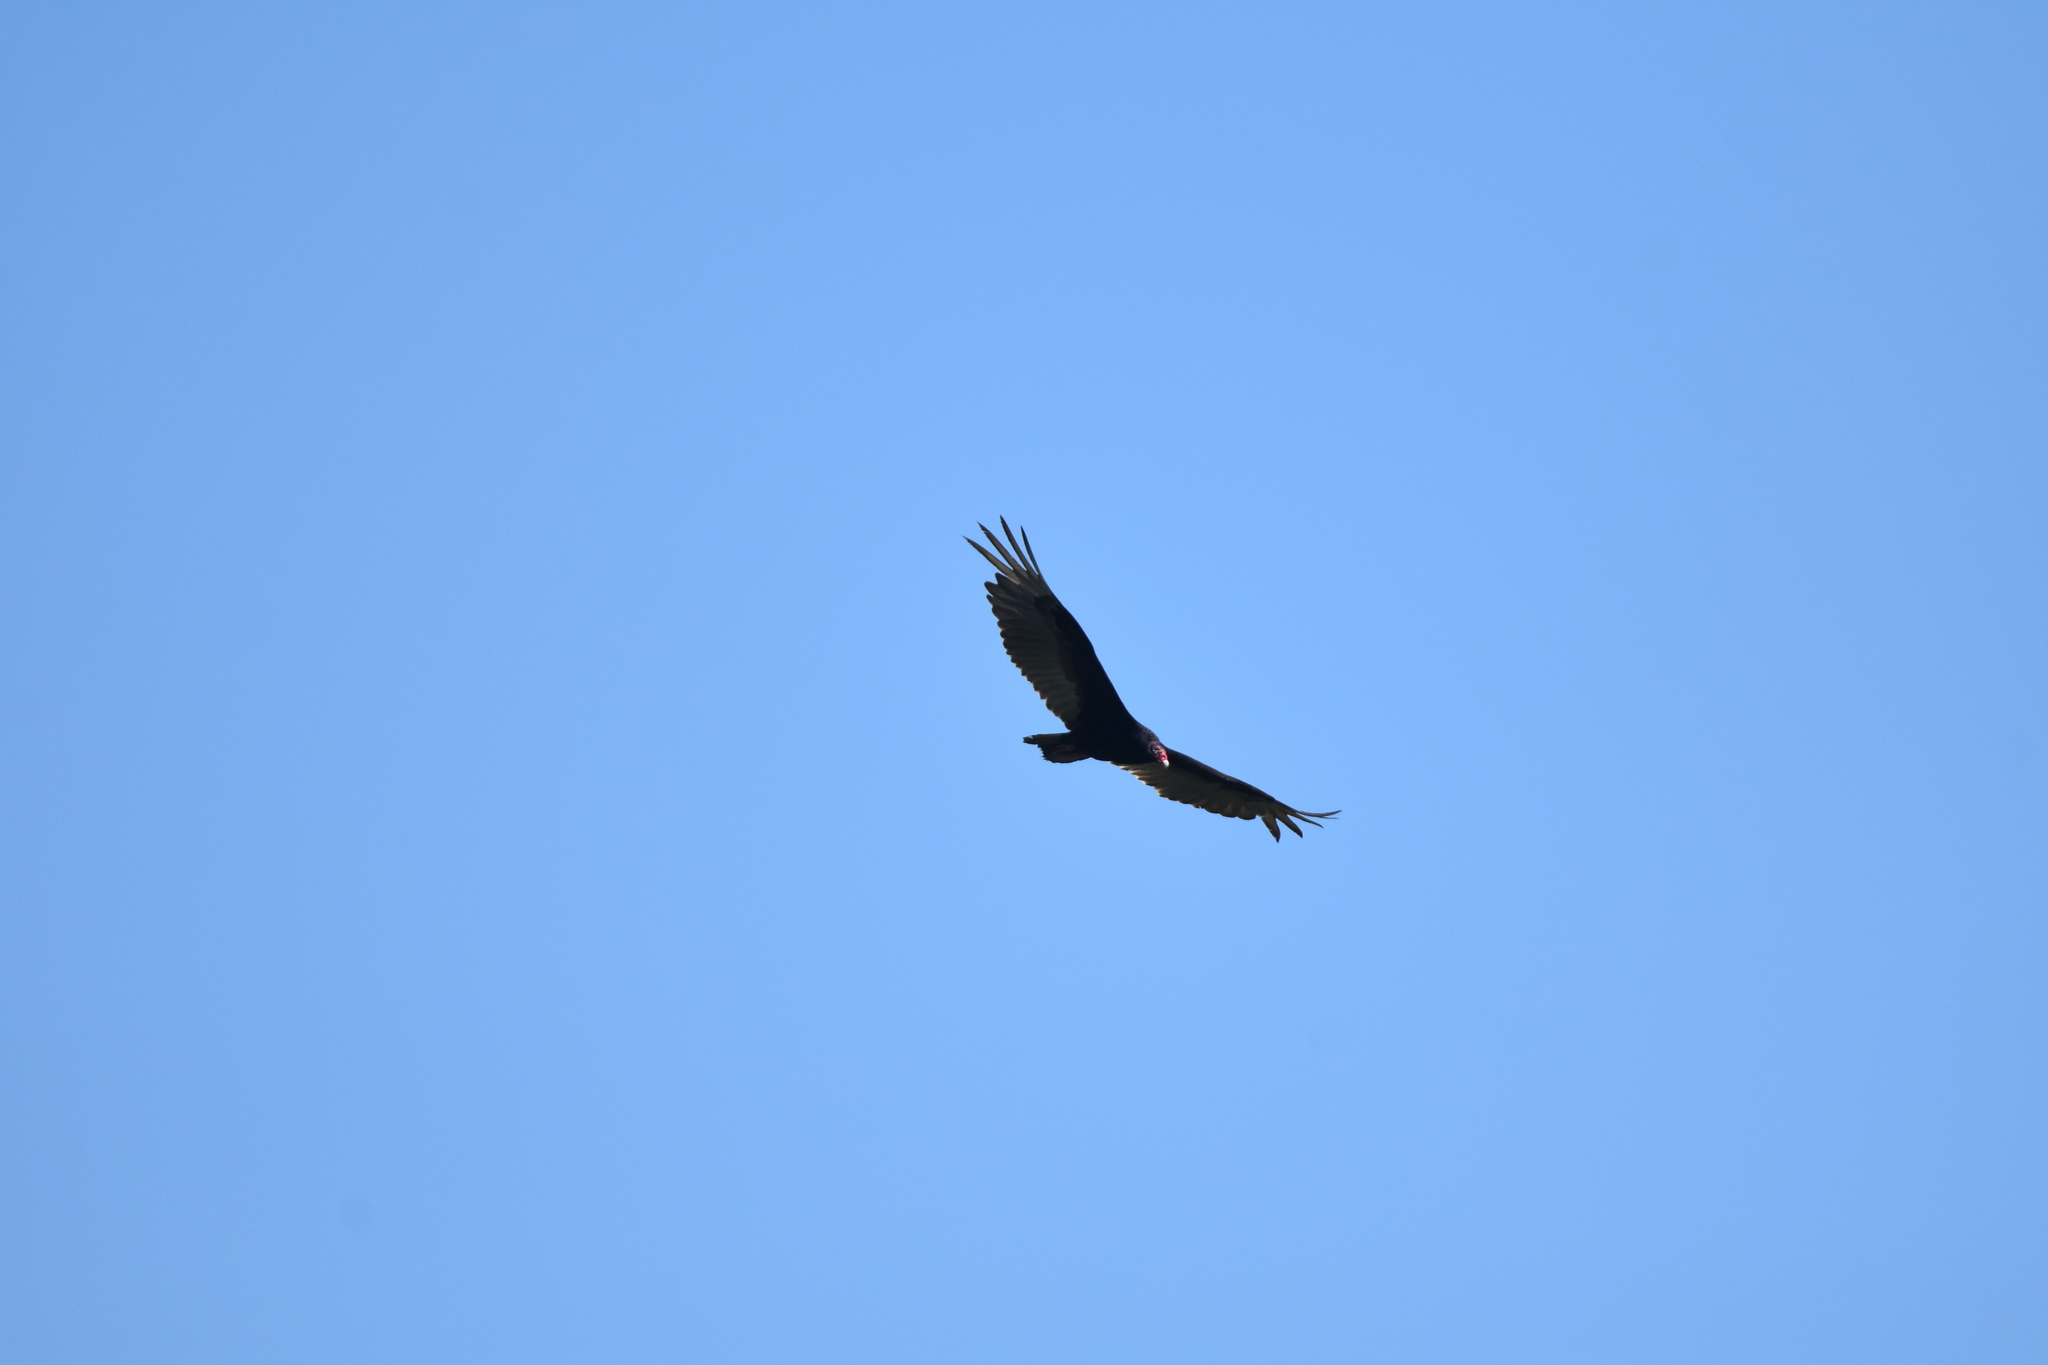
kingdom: Animalia
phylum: Chordata
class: Aves
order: Accipitriformes
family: Cathartidae
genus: Cathartes
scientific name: Cathartes aura
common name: Turkey vulture
